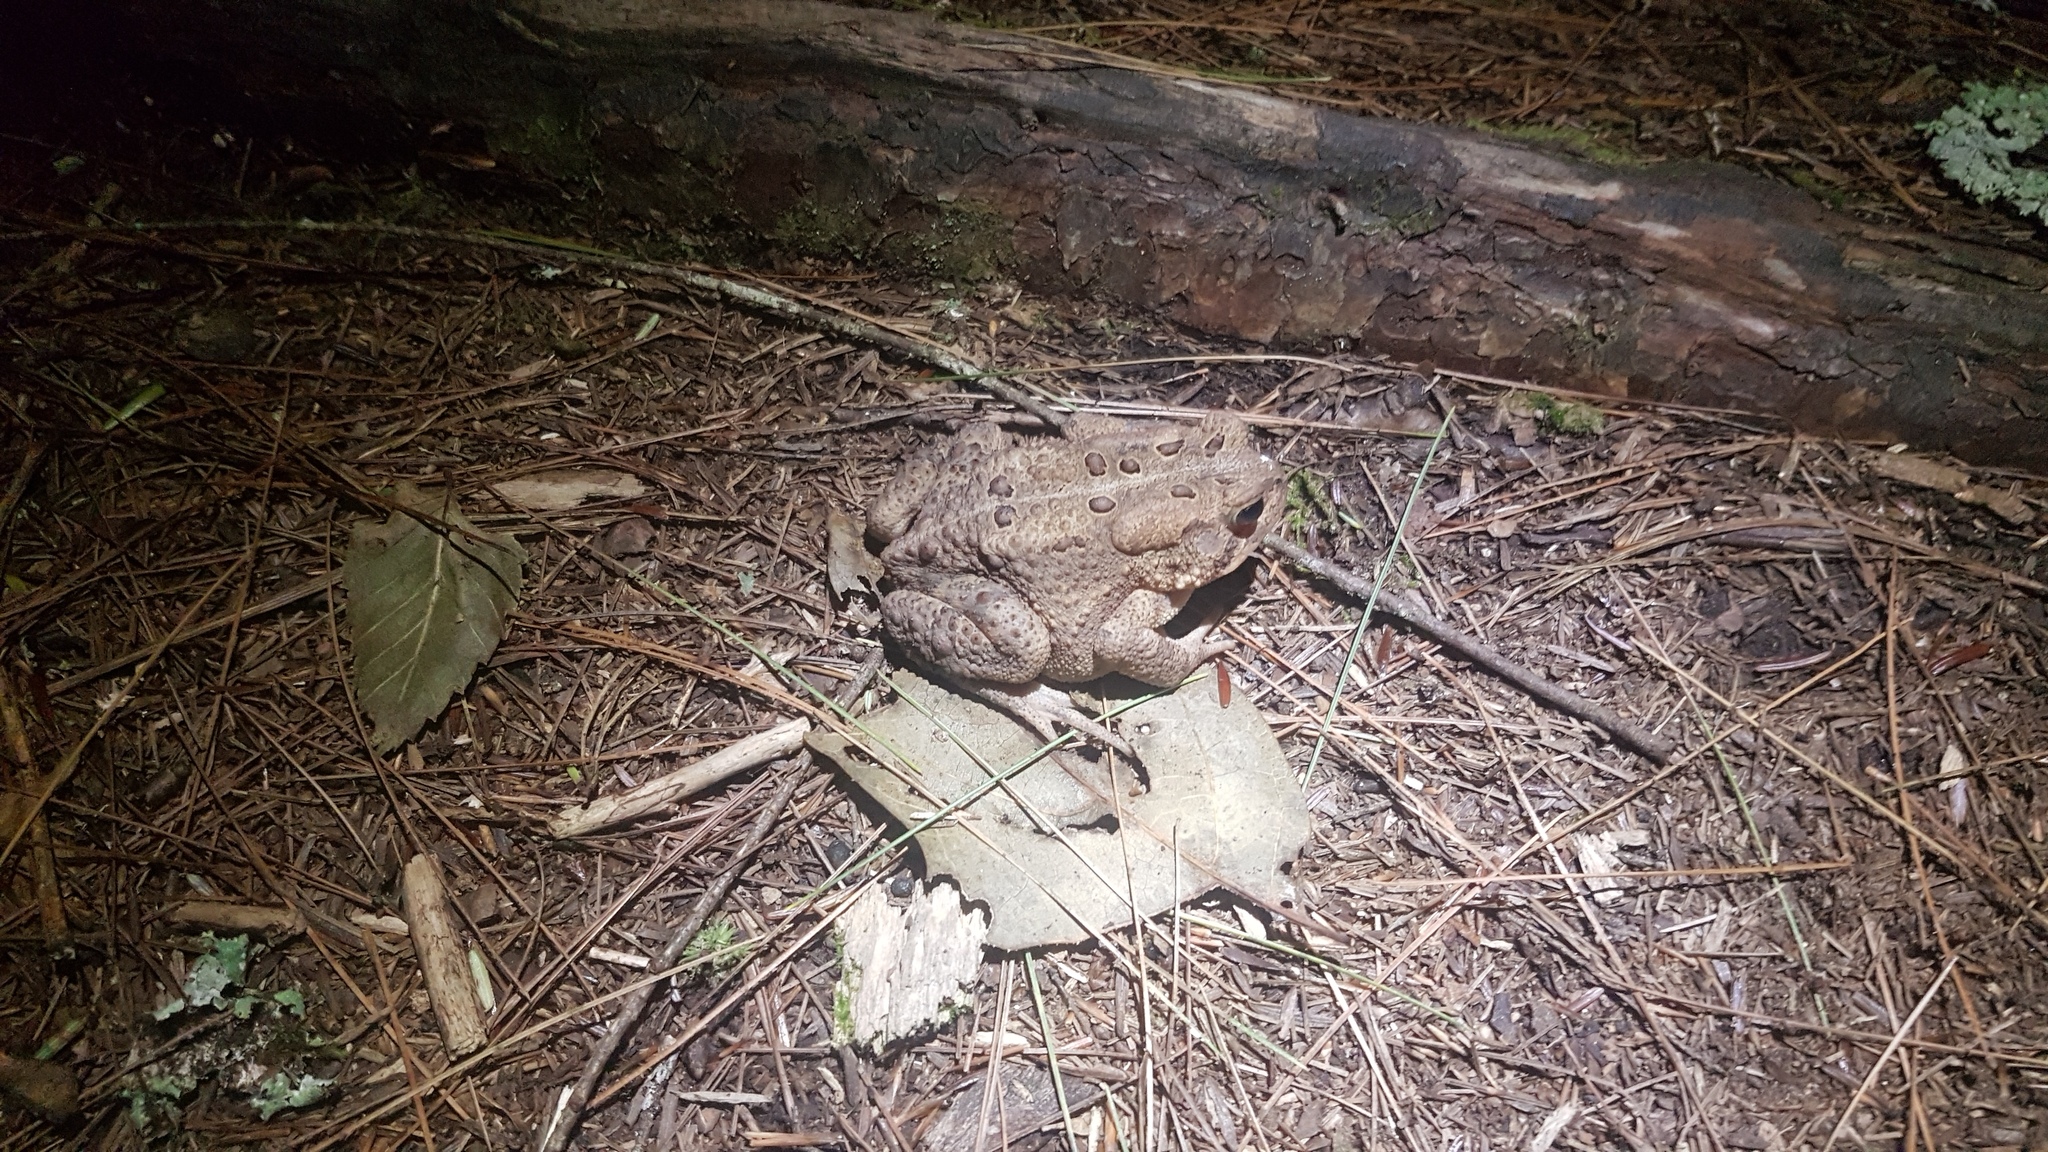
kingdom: Animalia
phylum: Chordata
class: Amphibia
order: Anura
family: Bufonidae
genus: Anaxyrus
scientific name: Anaxyrus americanus
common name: American toad
